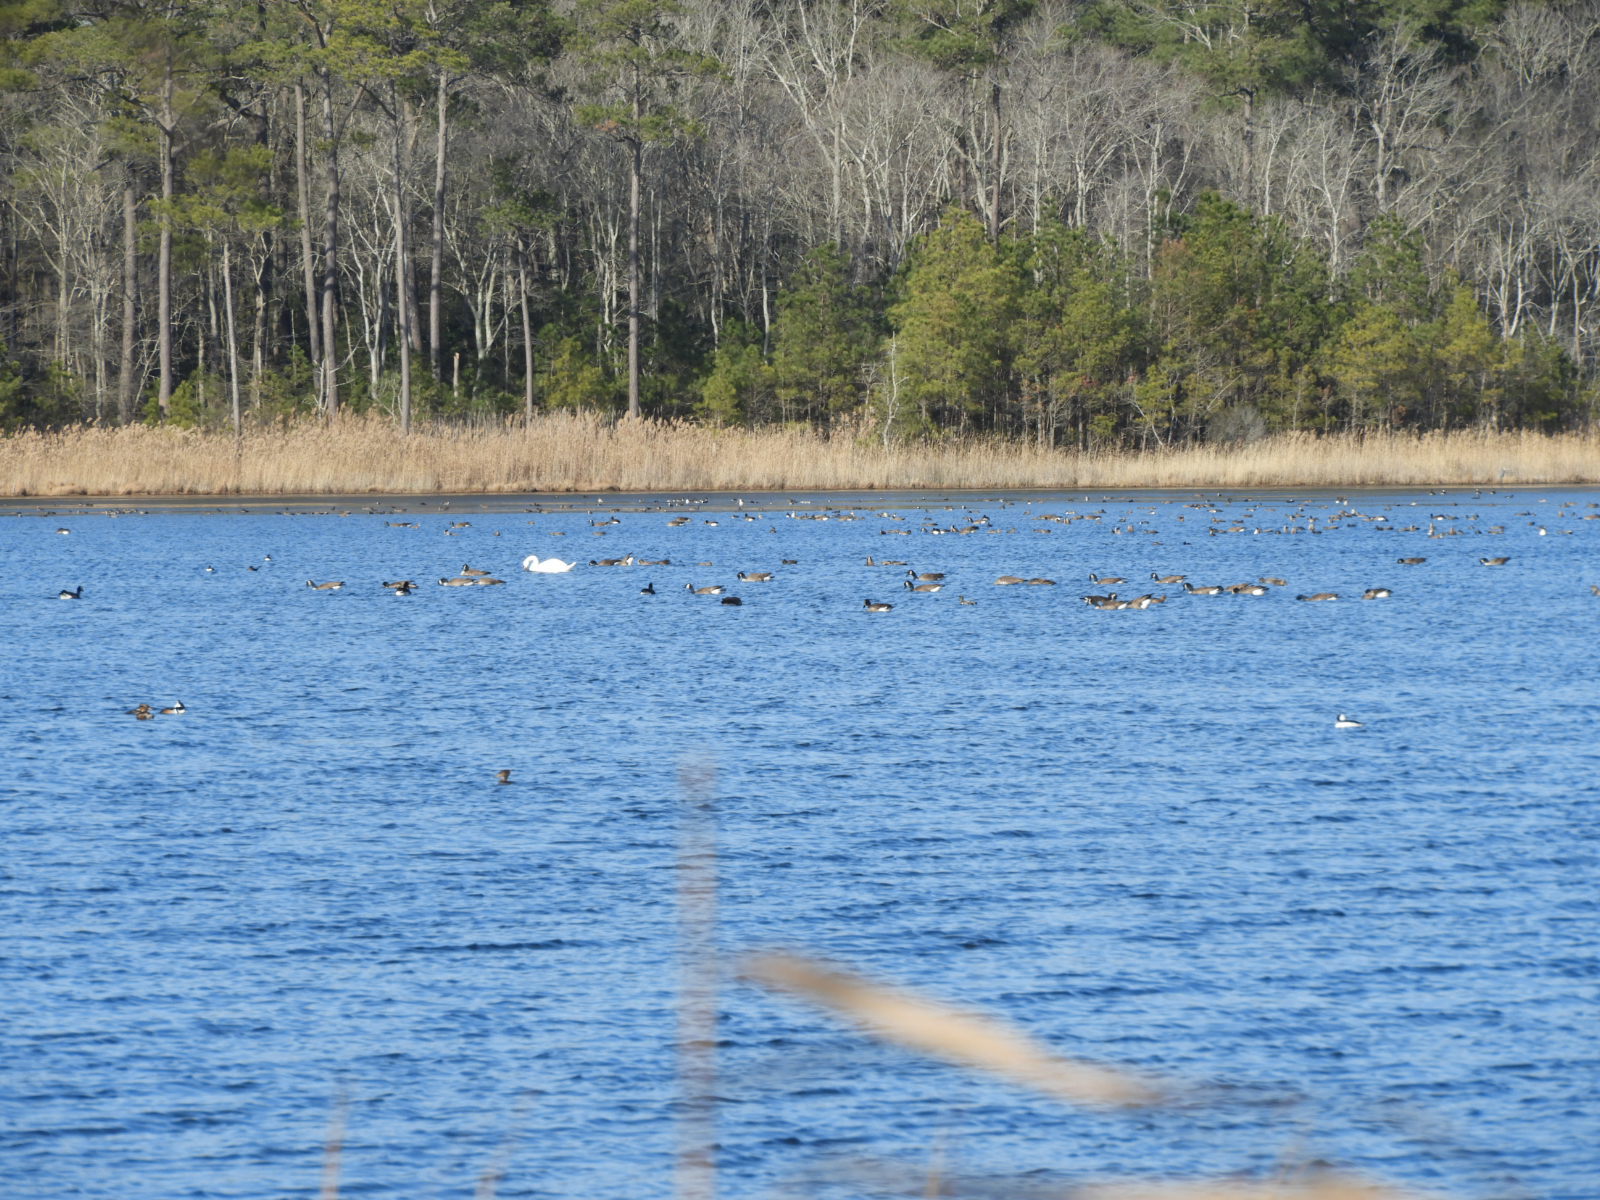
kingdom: Animalia
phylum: Chordata
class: Aves
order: Anseriformes
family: Anatidae
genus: Cygnus
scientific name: Cygnus olor
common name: Mute swan
